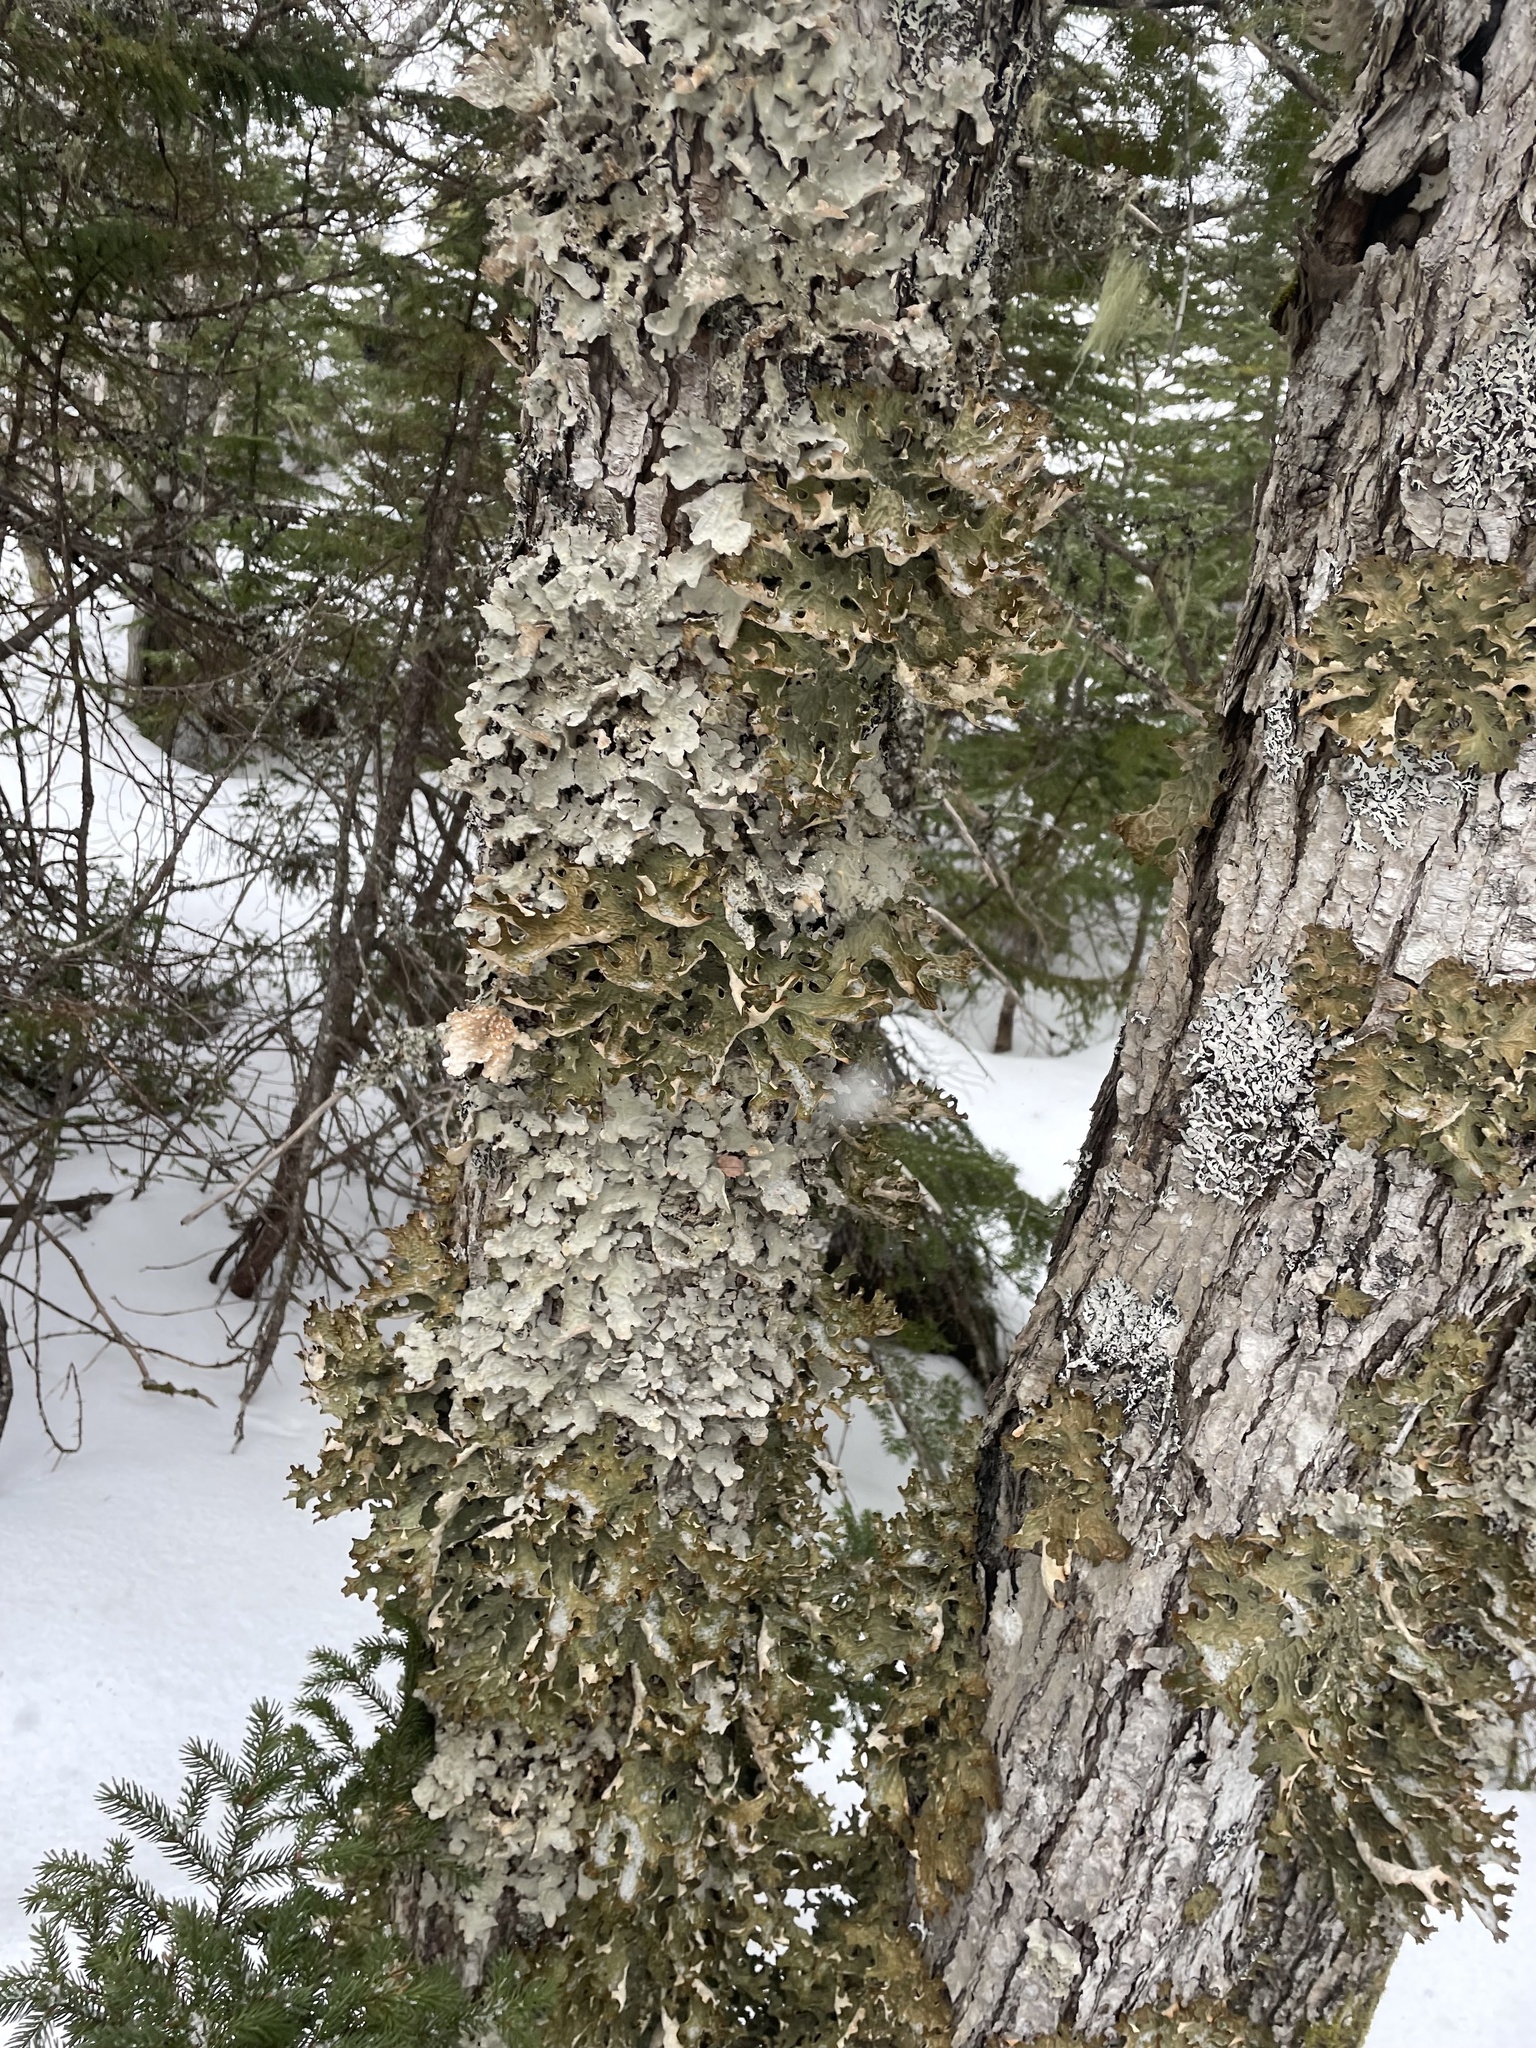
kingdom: Fungi
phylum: Ascomycota
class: Lecanoromycetes
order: Peltigerales
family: Lobariaceae
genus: Lobarina
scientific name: Lobarina scrobiculata
